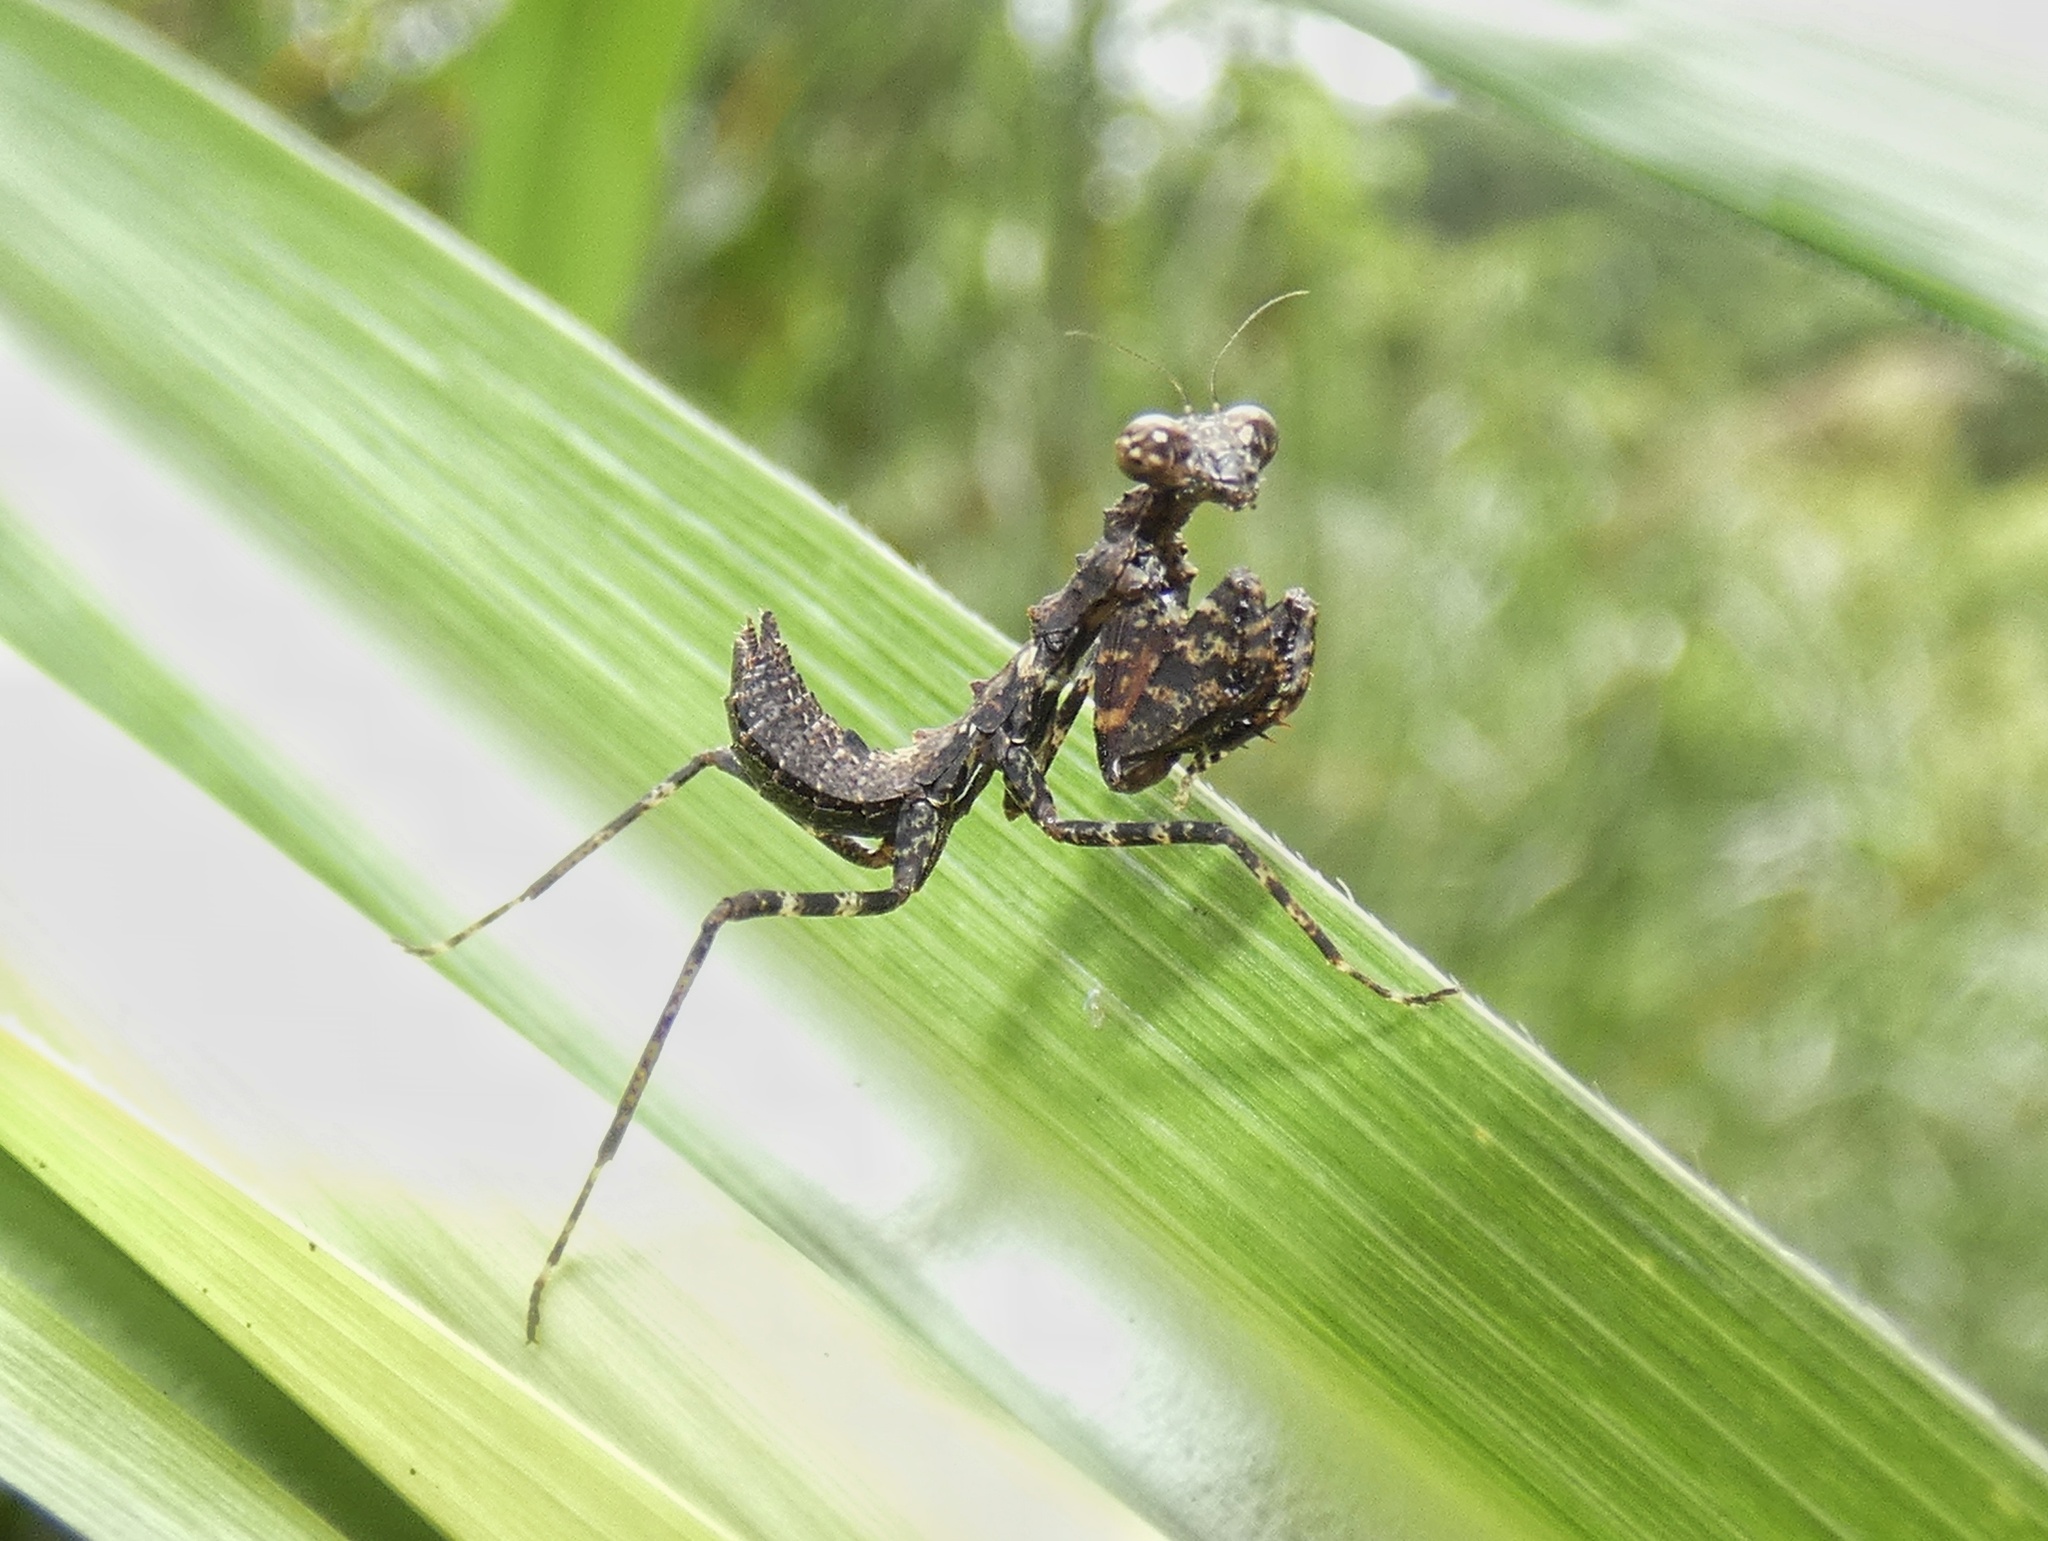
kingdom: Animalia
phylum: Arthropoda
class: Insecta
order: Mantodea
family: Thespidae
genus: Pseudomiopteryx
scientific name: Pseudomiopteryx infuscata
